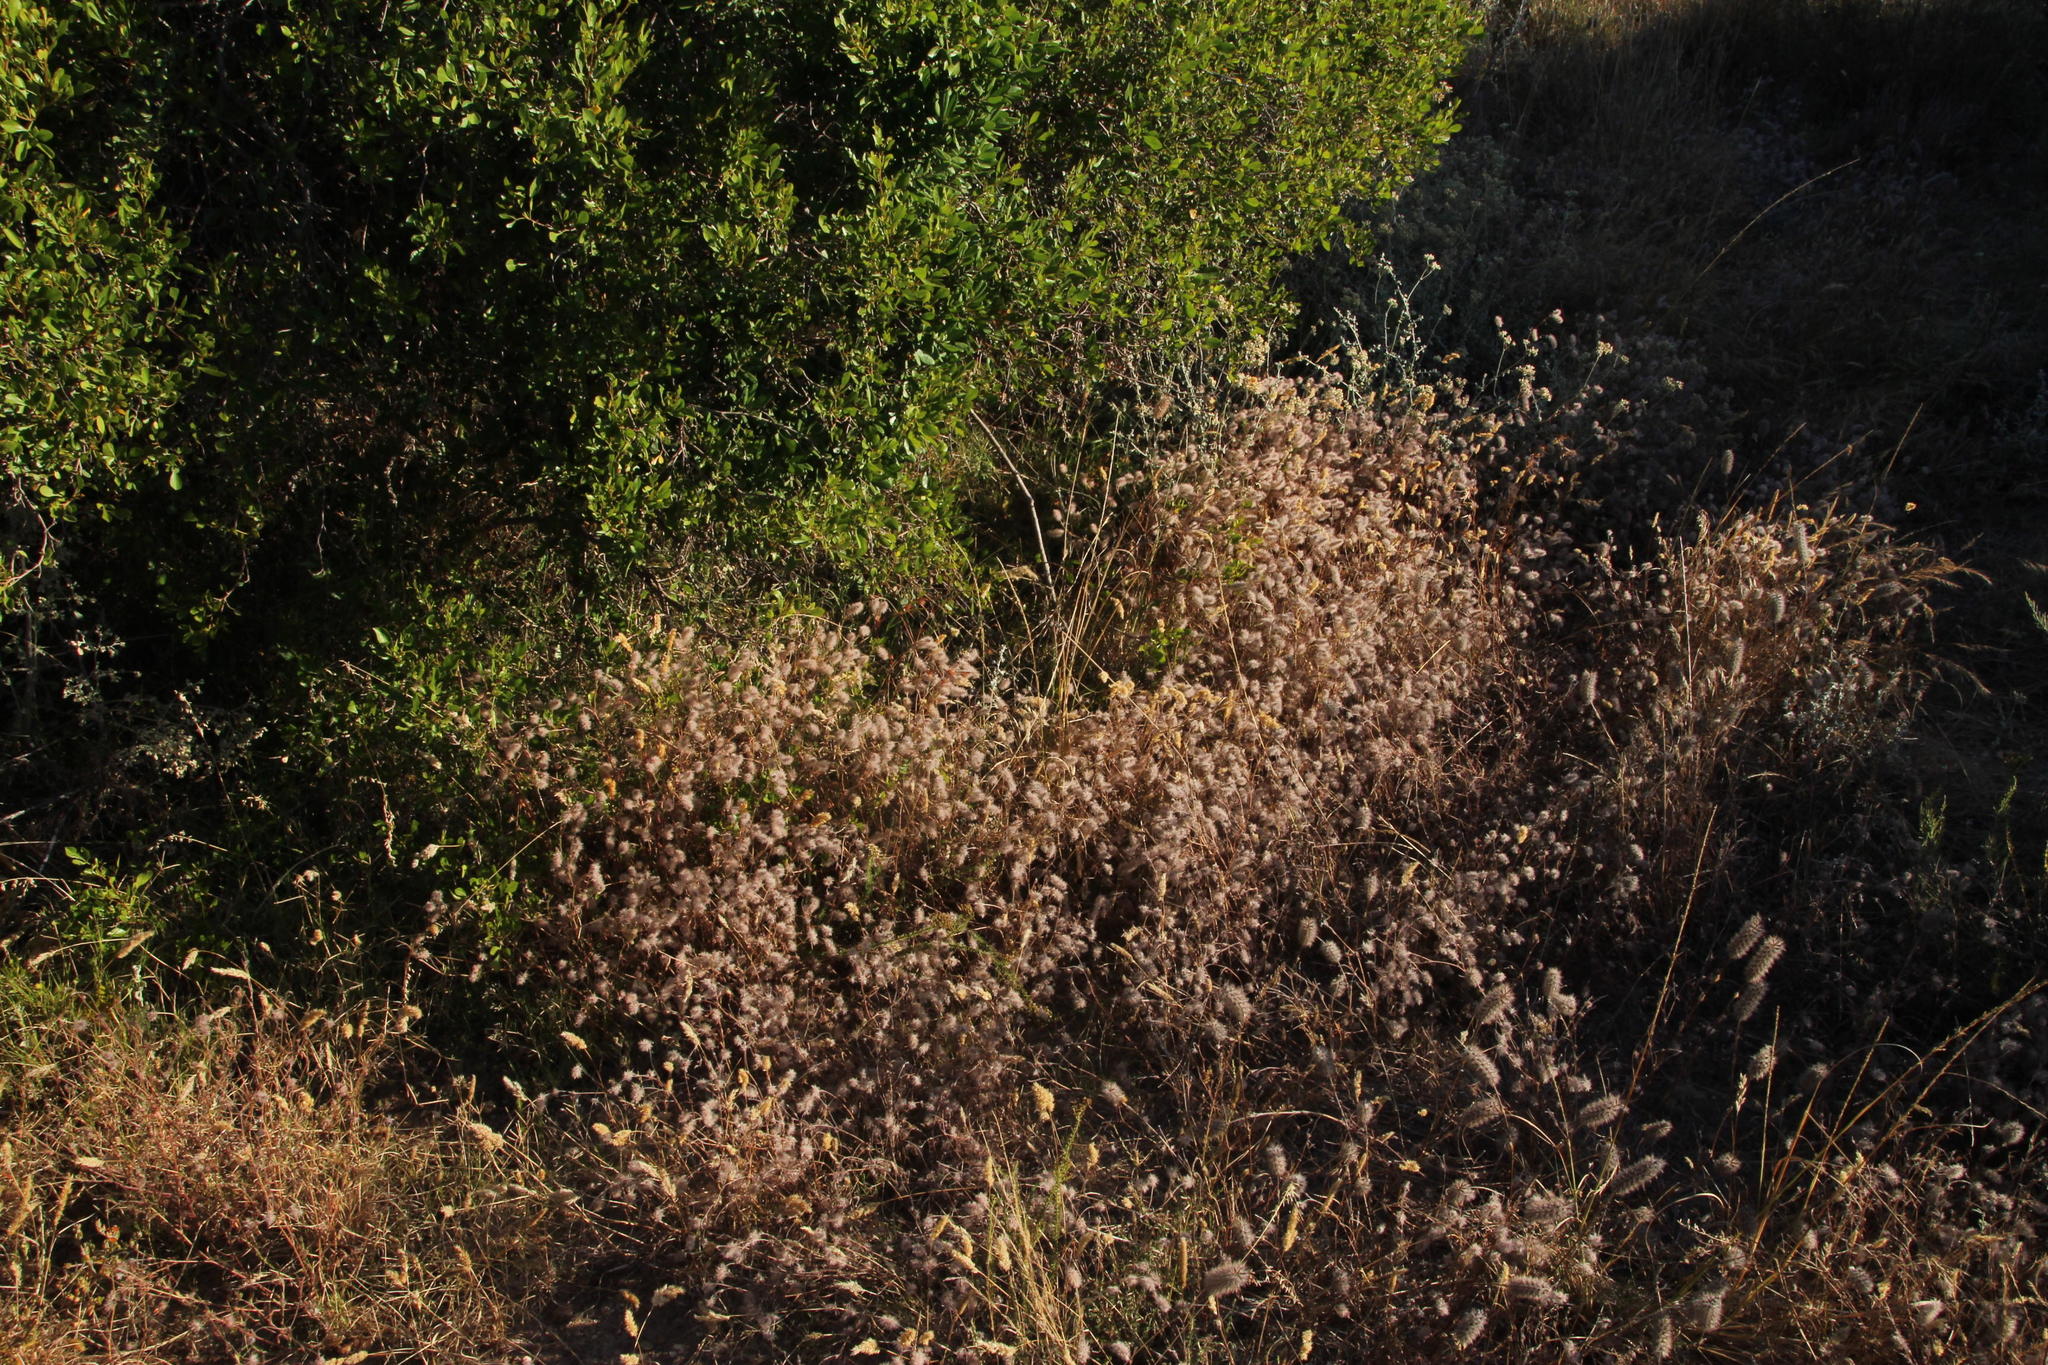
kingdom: Plantae
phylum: Tracheophyta
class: Magnoliopsida
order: Fabales
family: Fabaceae
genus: Trifolium
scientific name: Trifolium arvense
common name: Hare's-foot clover
